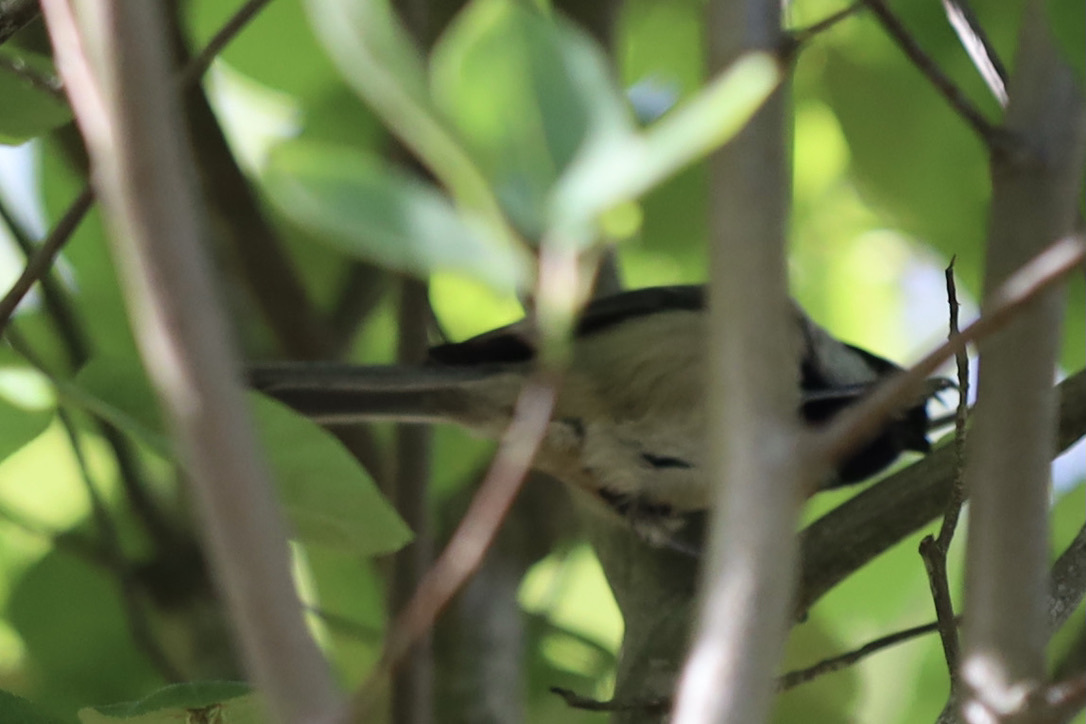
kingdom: Animalia
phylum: Chordata
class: Aves
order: Passeriformes
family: Paridae
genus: Poecile
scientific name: Poecile atricapillus
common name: Black-capped chickadee
